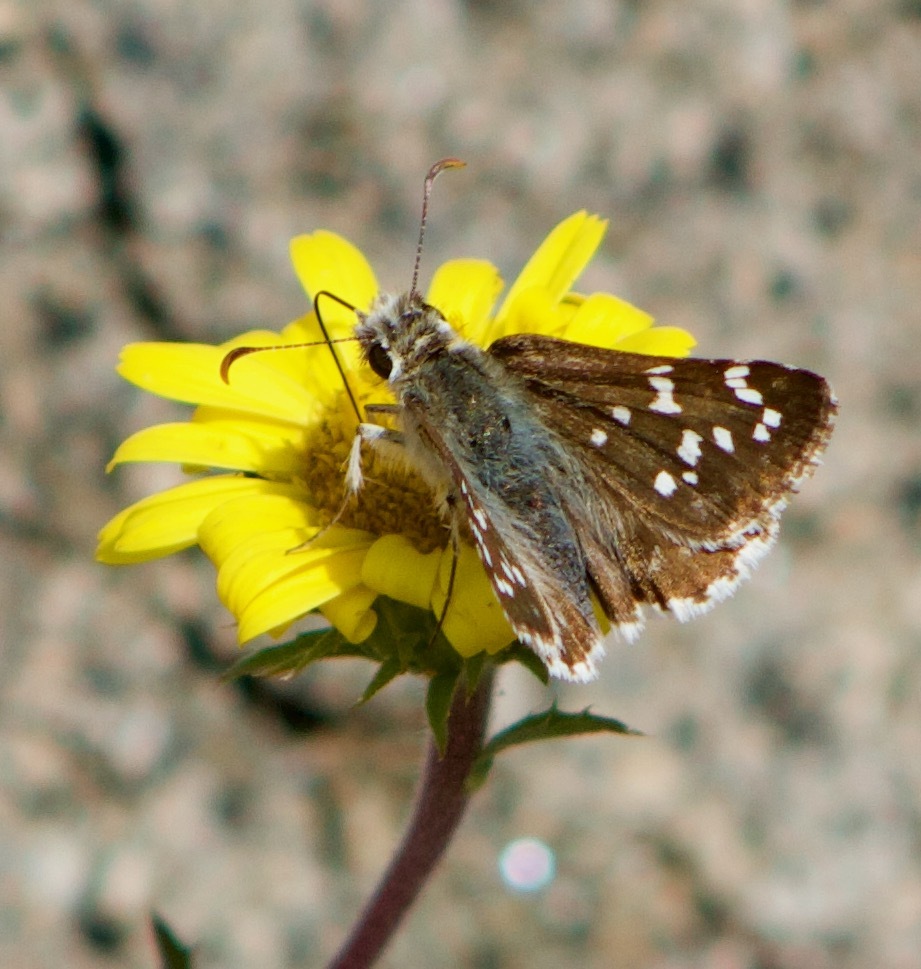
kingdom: Animalia
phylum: Arthropoda
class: Insecta
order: Lepidoptera
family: Hesperiidae
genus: Chirgus
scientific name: Chirgus fides
